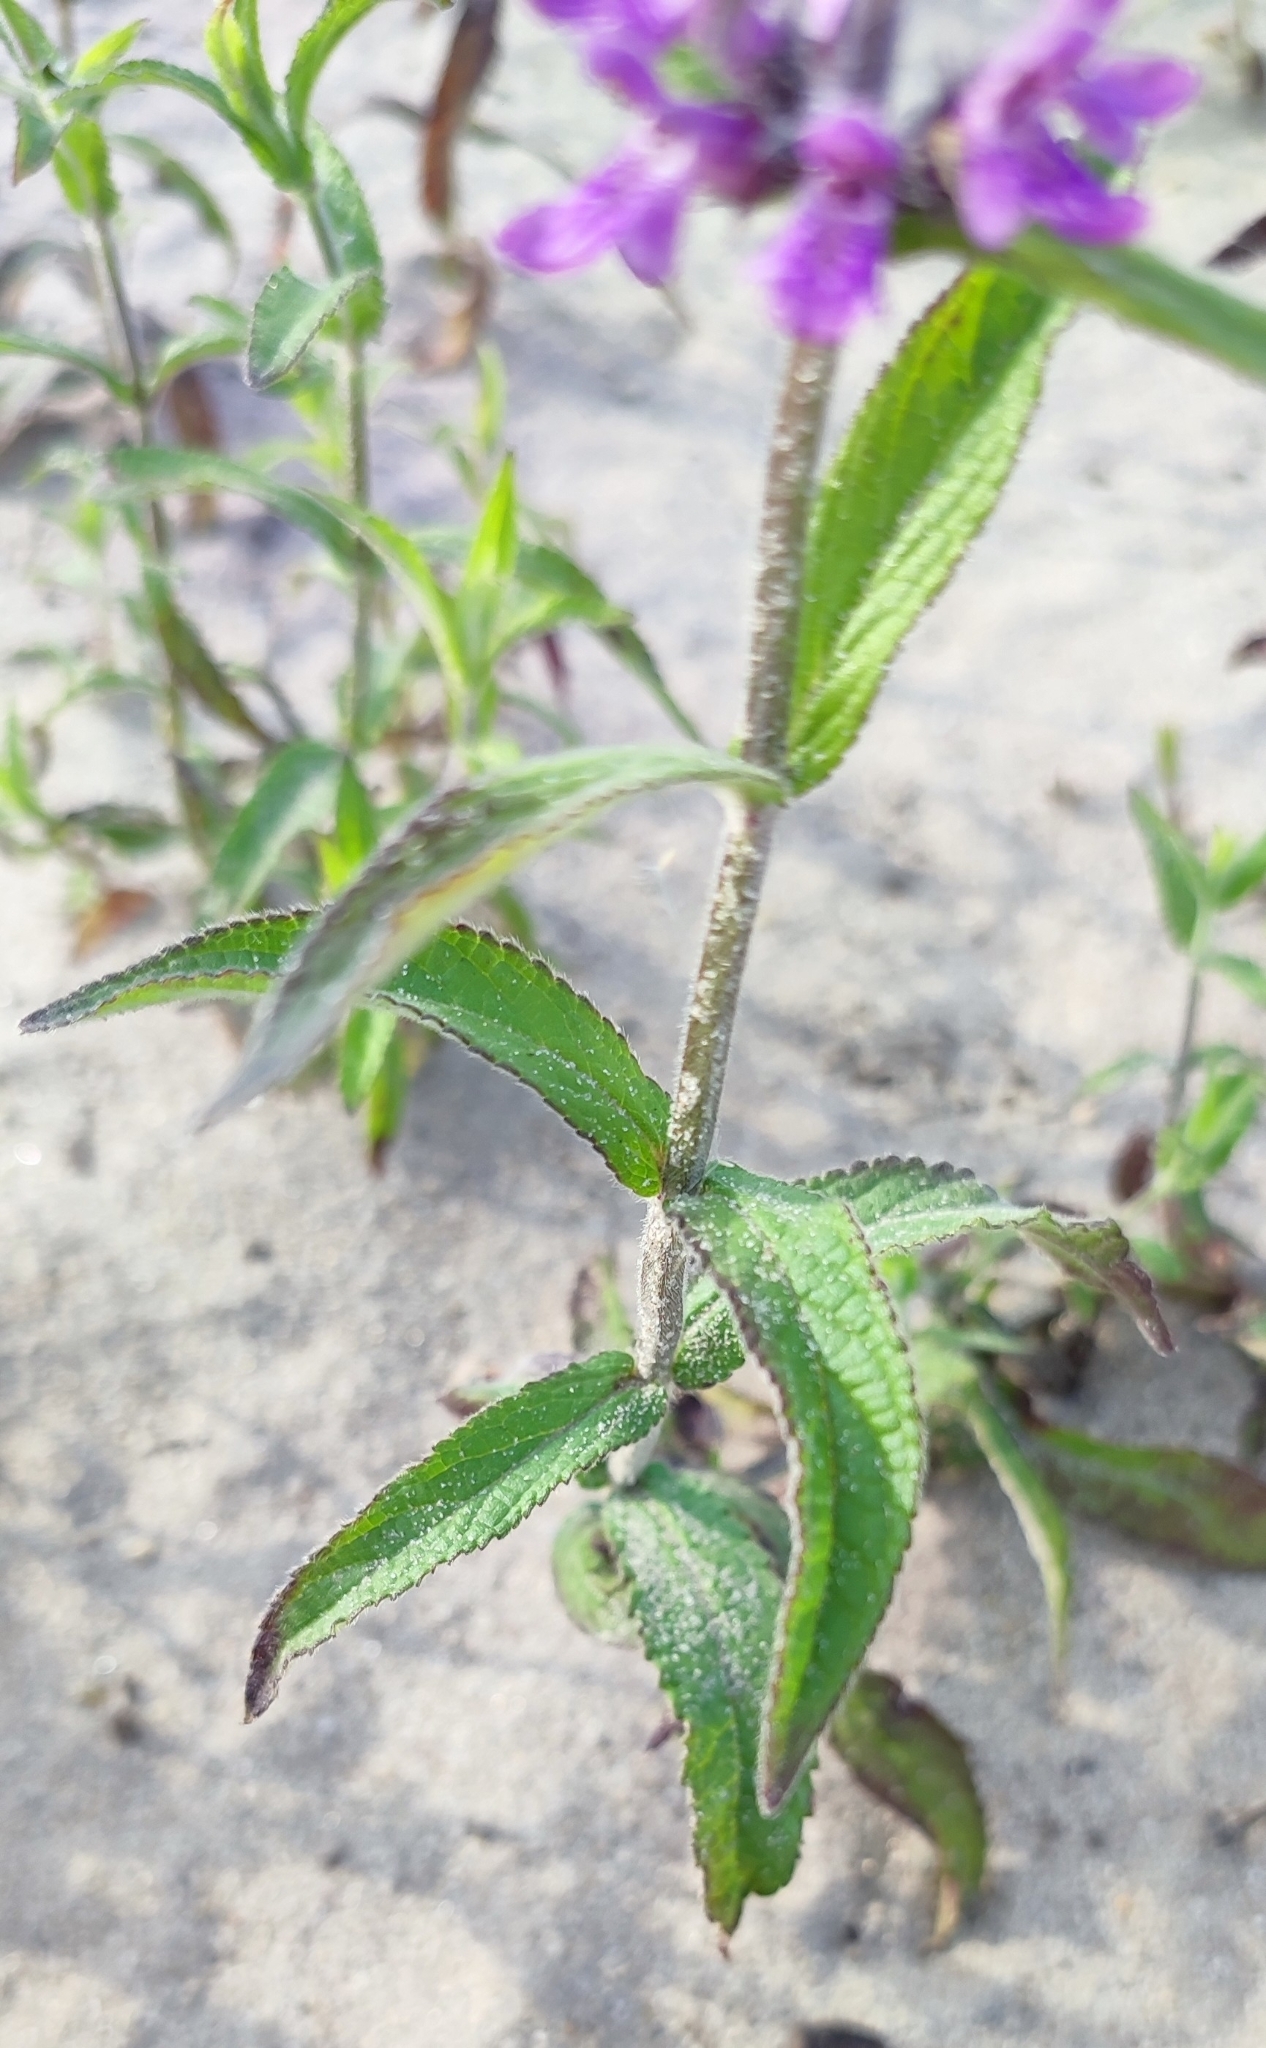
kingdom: Plantae
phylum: Tracheophyta
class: Magnoliopsida
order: Lamiales
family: Lamiaceae
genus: Stachys
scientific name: Stachys palustris
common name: Marsh woundwort
